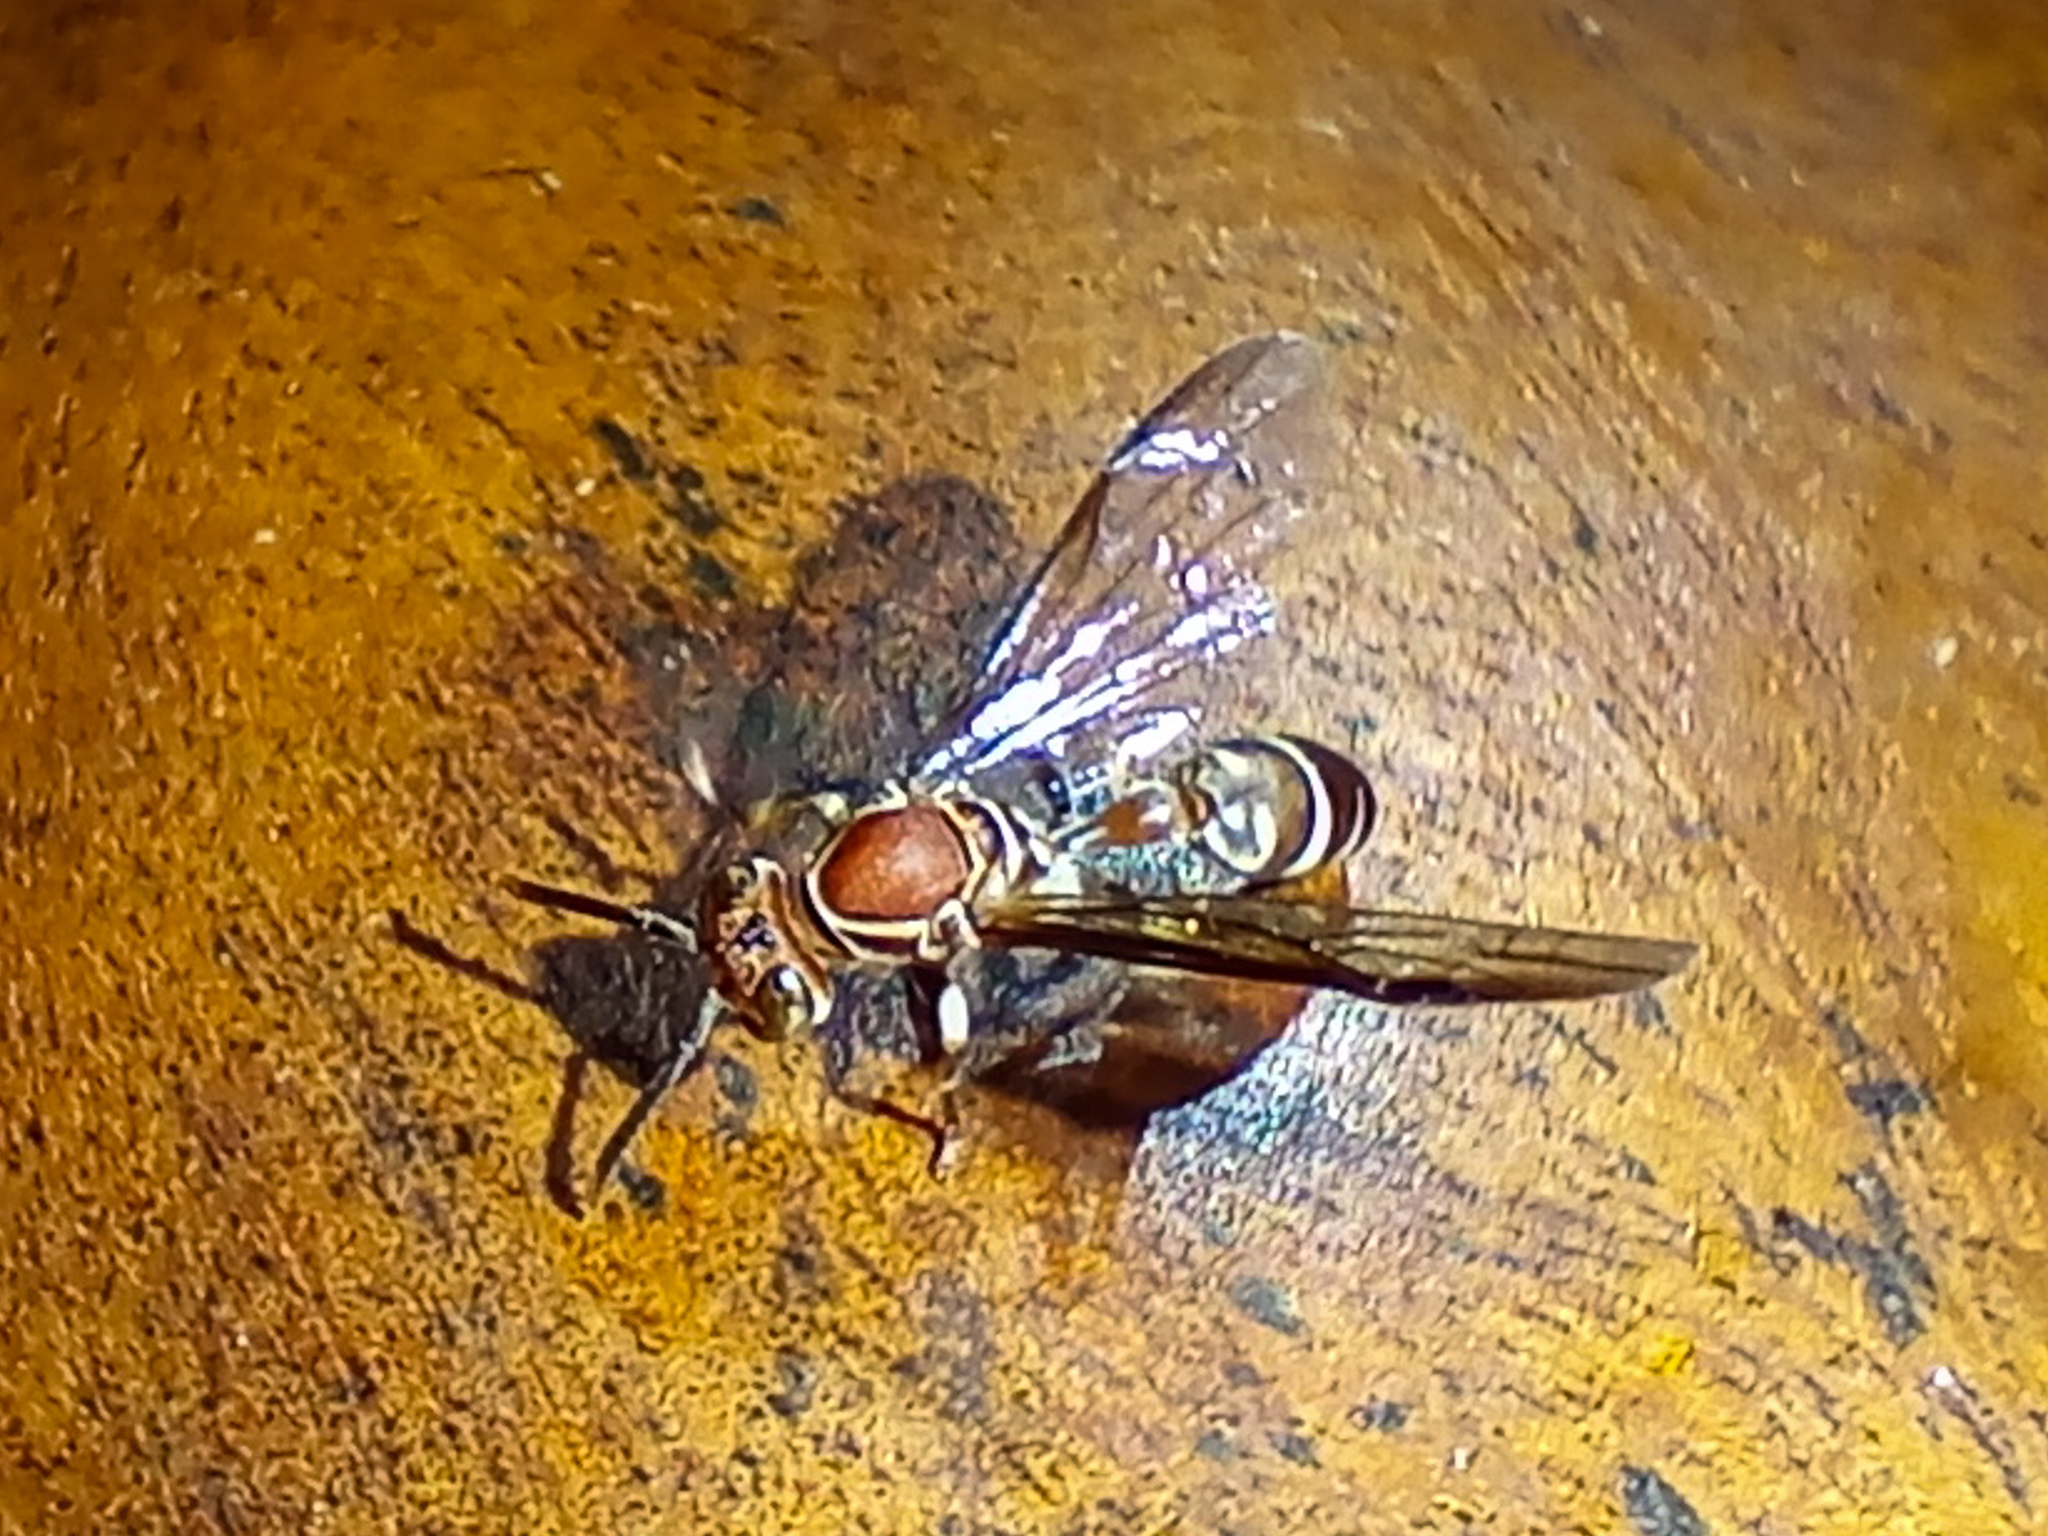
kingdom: Animalia
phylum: Arthropoda
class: Insecta
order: Hymenoptera
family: Vespidae
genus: Parapolybia
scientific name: Parapolybia nodosa
